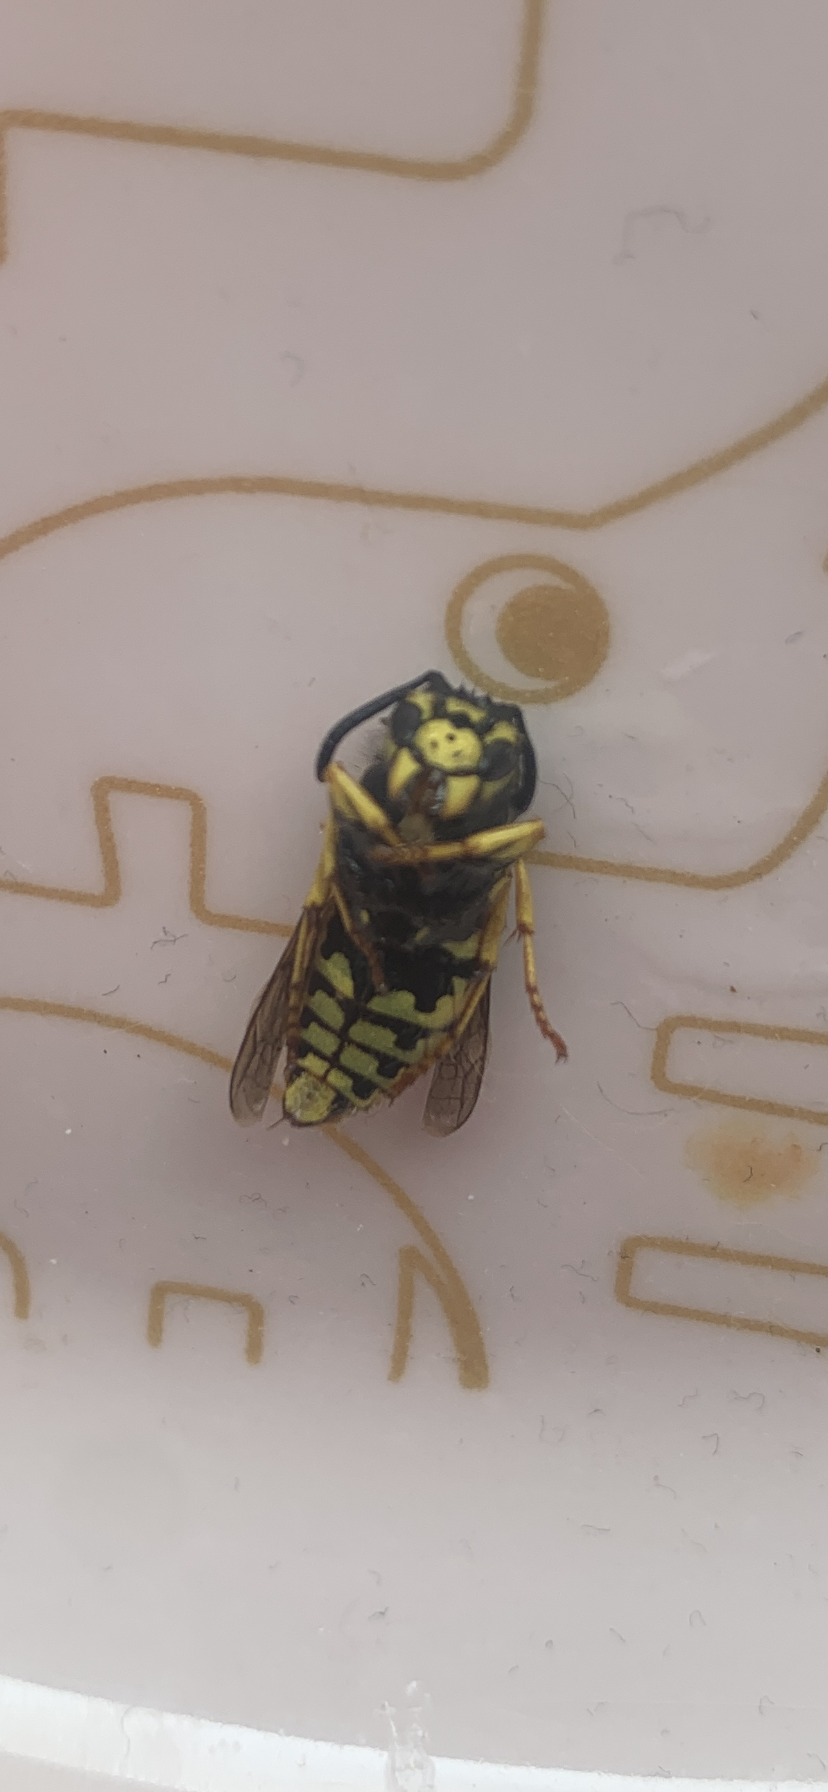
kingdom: Animalia
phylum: Arthropoda
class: Insecta
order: Hymenoptera
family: Vespidae
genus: Vespula
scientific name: Vespula germanica
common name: German wasp
